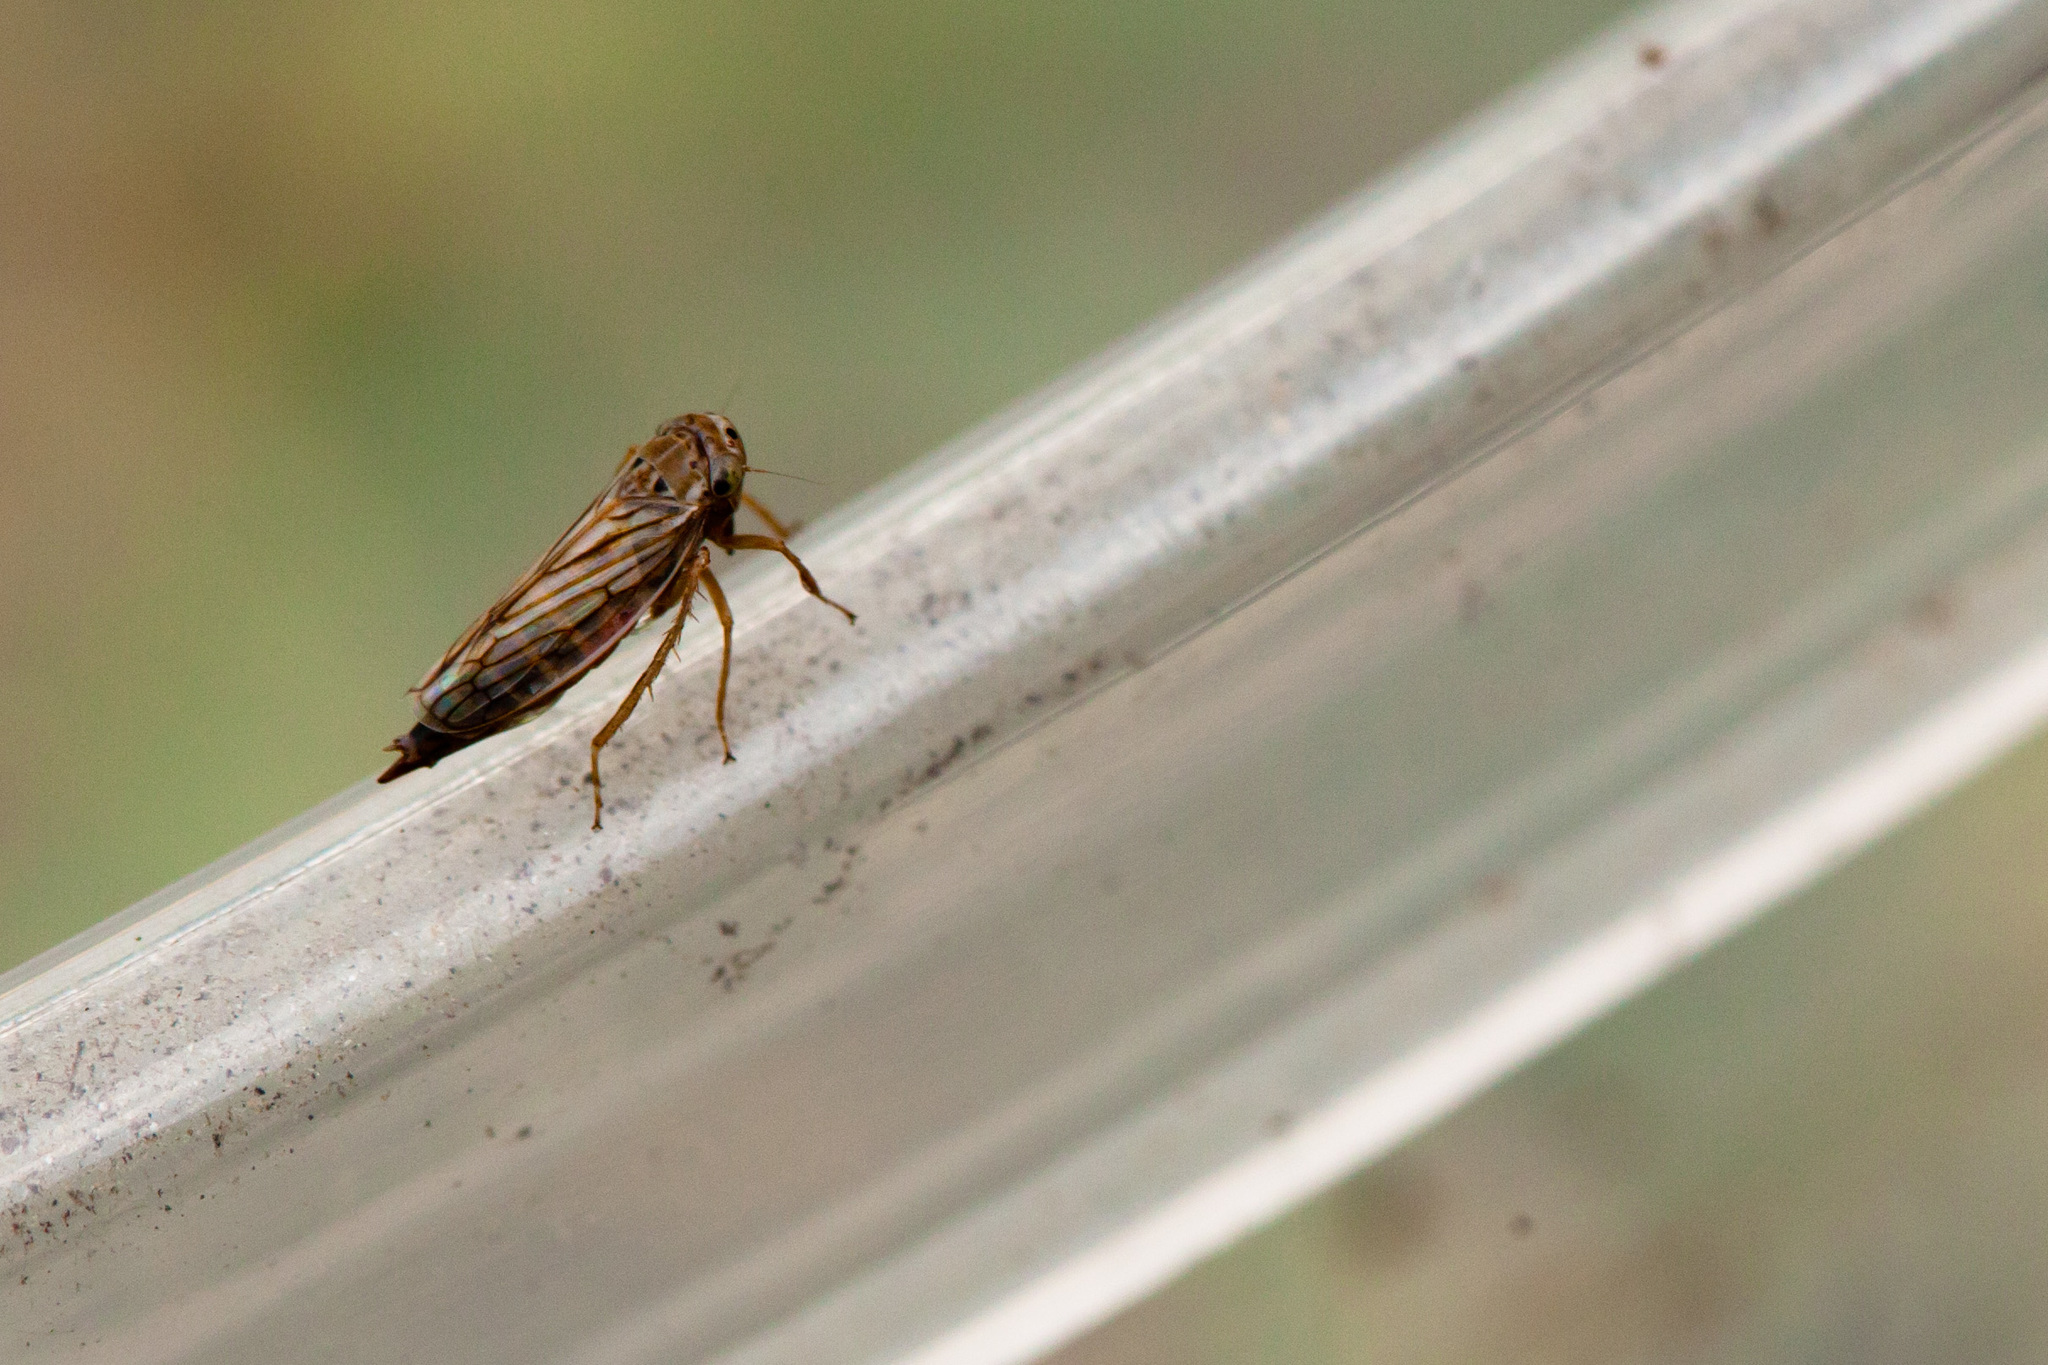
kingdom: Animalia
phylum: Arthropoda
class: Insecta
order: Hemiptera
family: Cicadellidae
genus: Exitianus
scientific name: Exitianus exitiosus
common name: Gray lawn leafhopper
